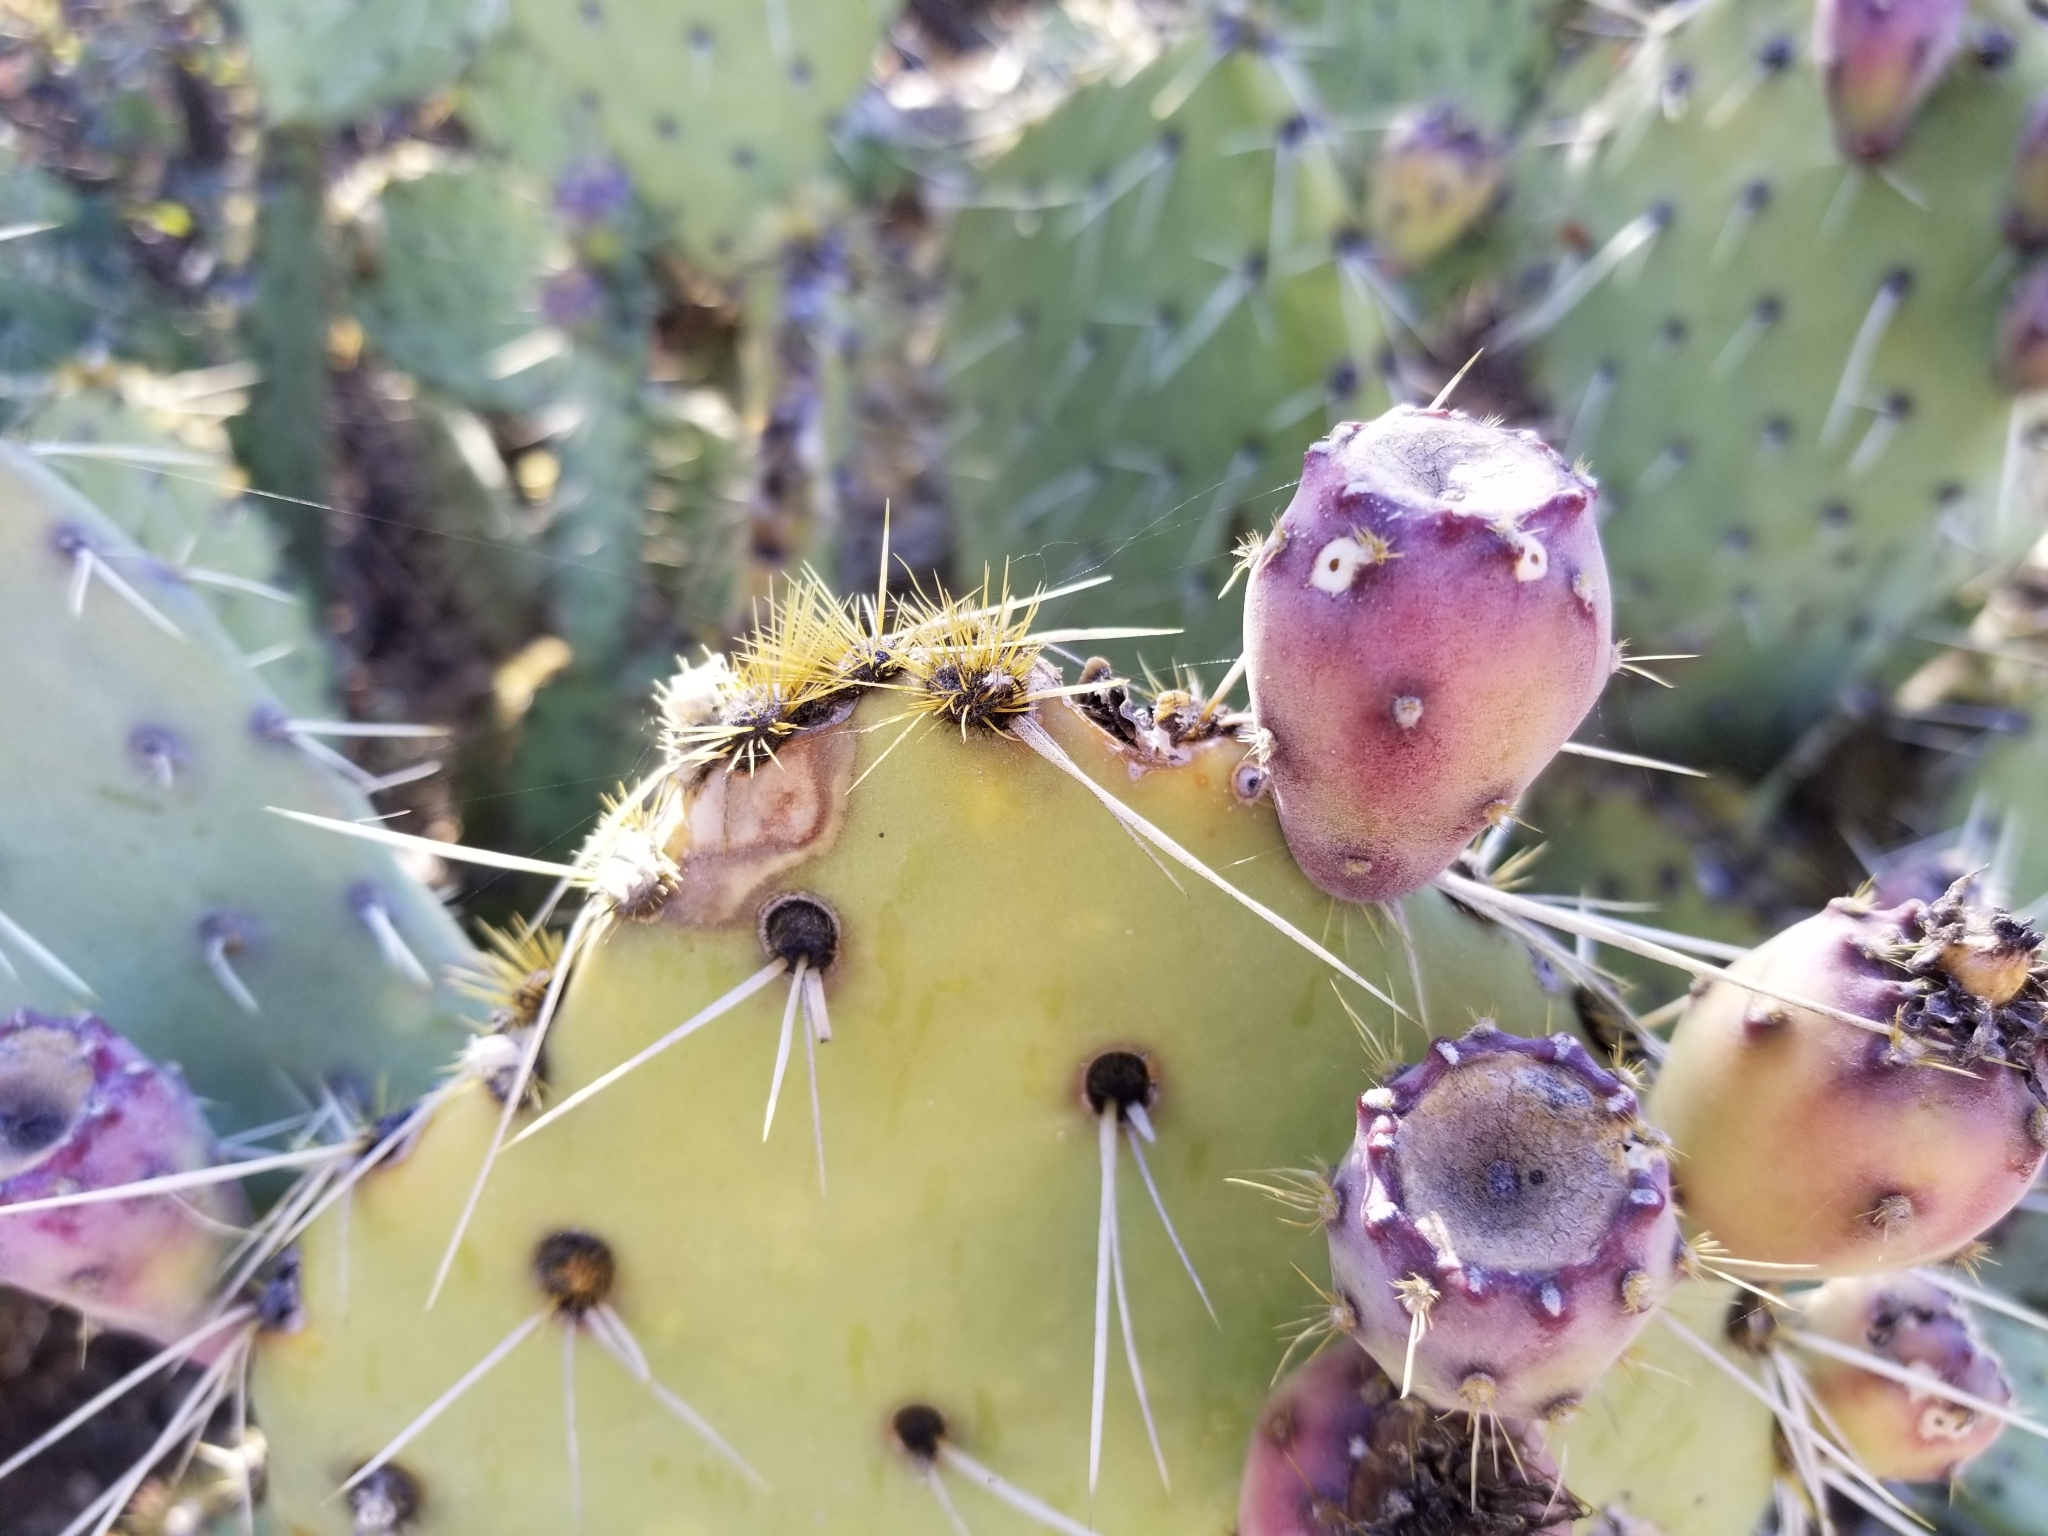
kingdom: Plantae
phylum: Tracheophyta
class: Magnoliopsida
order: Caryophyllales
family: Cactaceae
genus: Opuntia
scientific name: Opuntia engelmannii
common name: Cactus-apple
